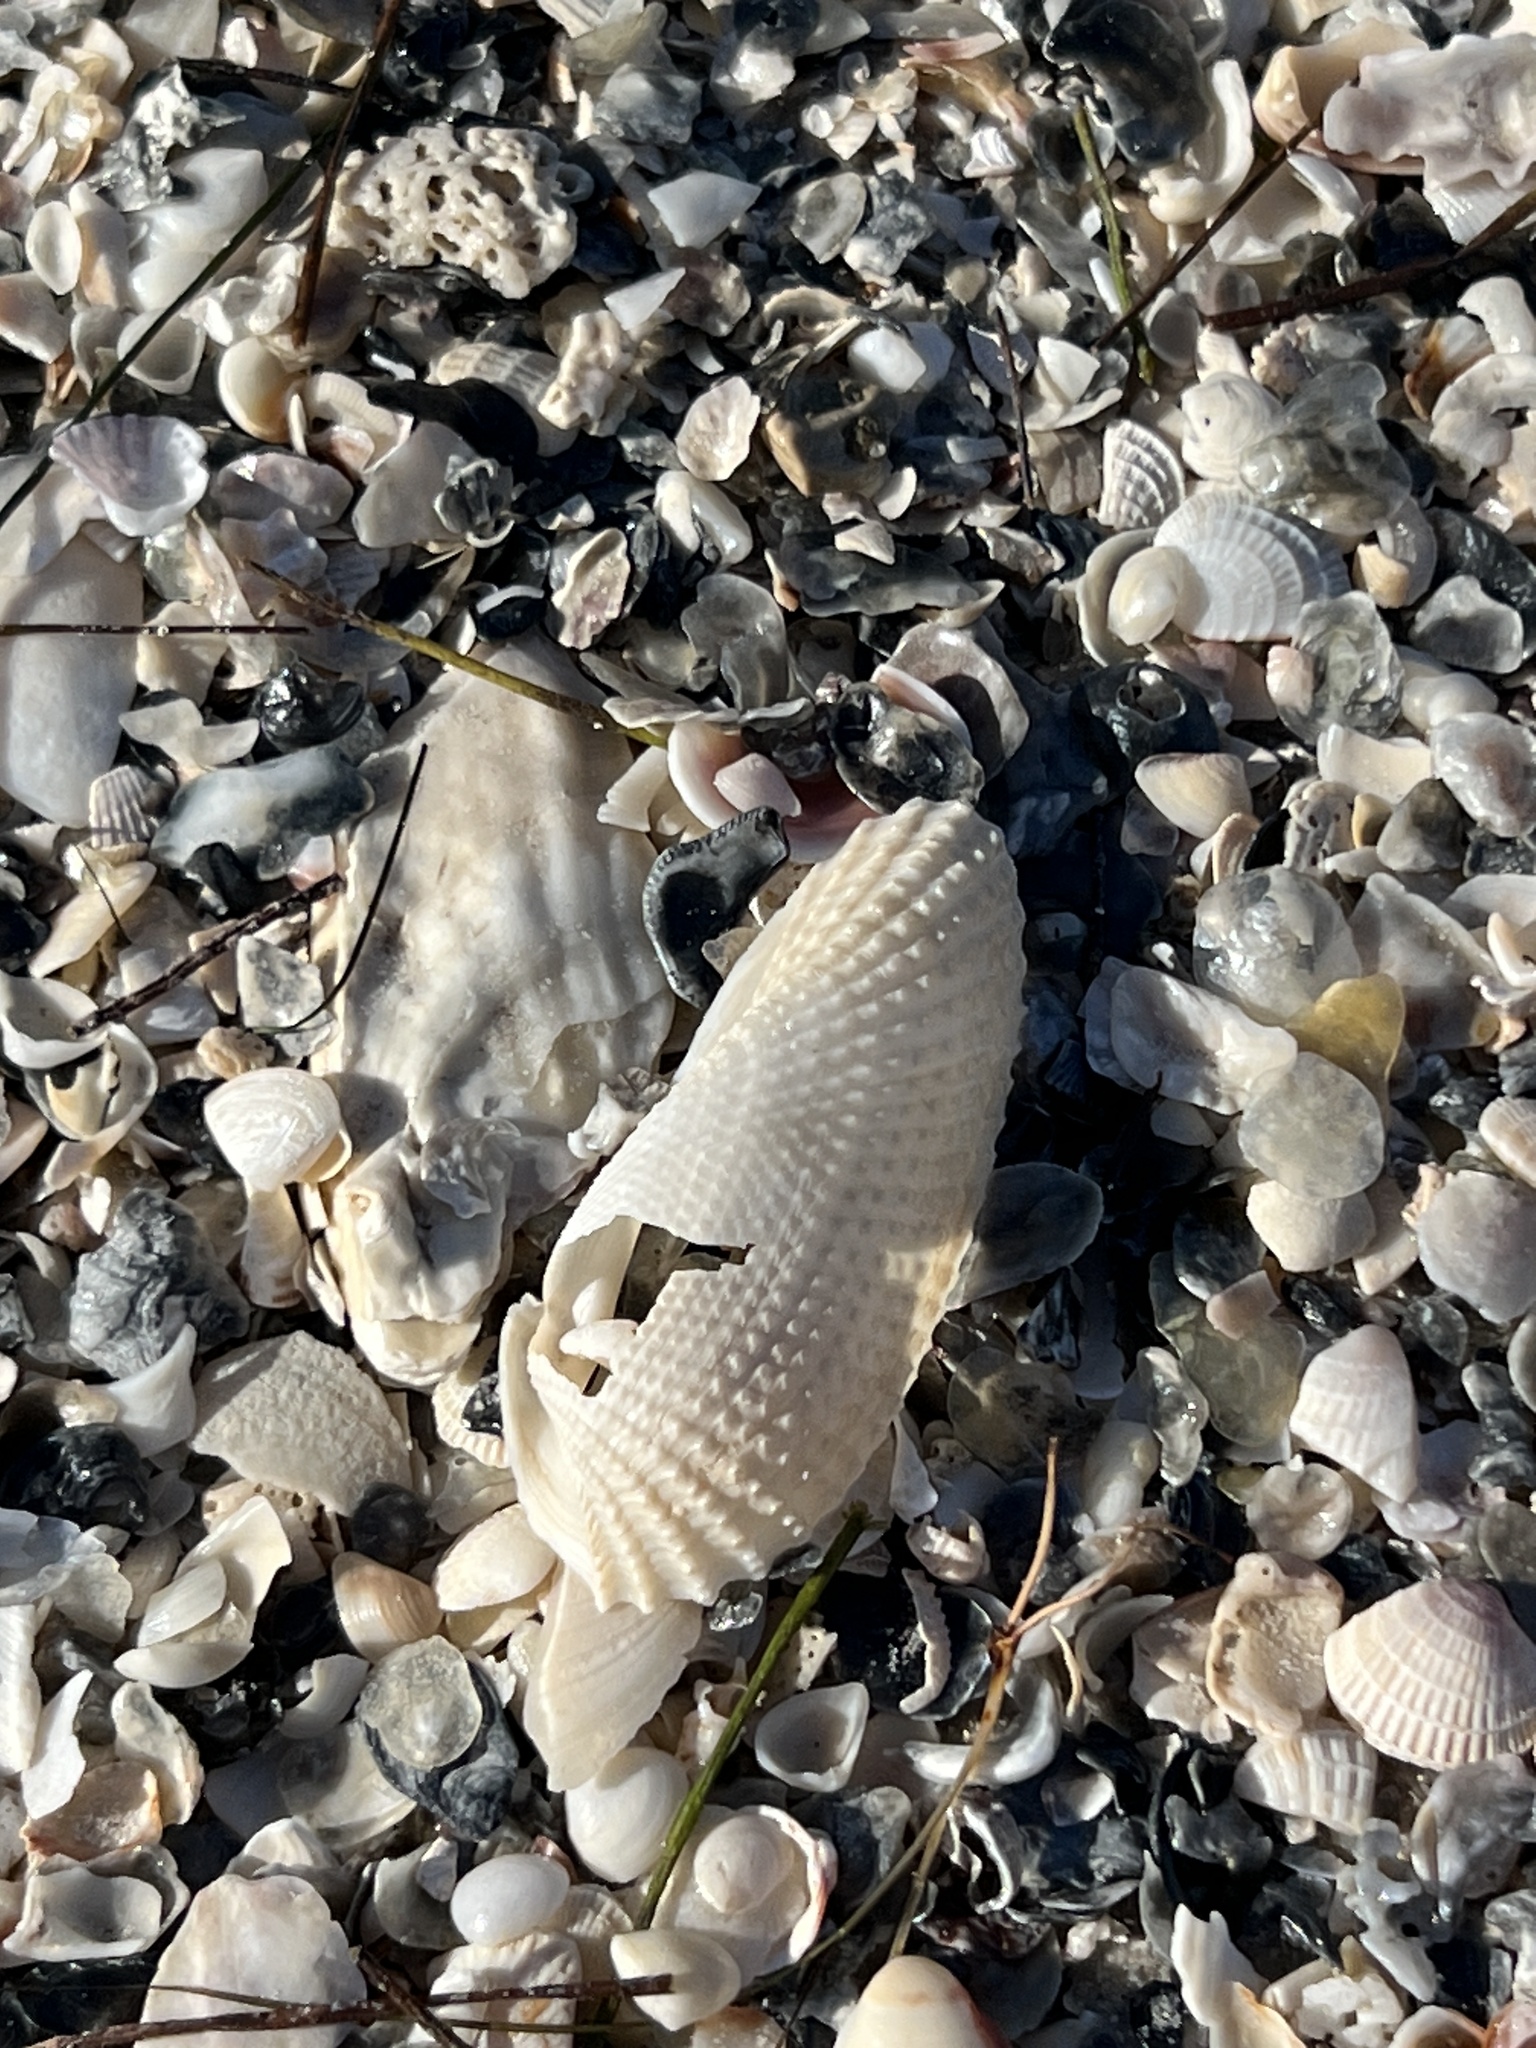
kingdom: Animalia
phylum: Mollusca
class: Bivalvia
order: Myida
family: Pholadidae
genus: Cyrtopleura
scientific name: Cyrtopleura costata
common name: Angel wing
